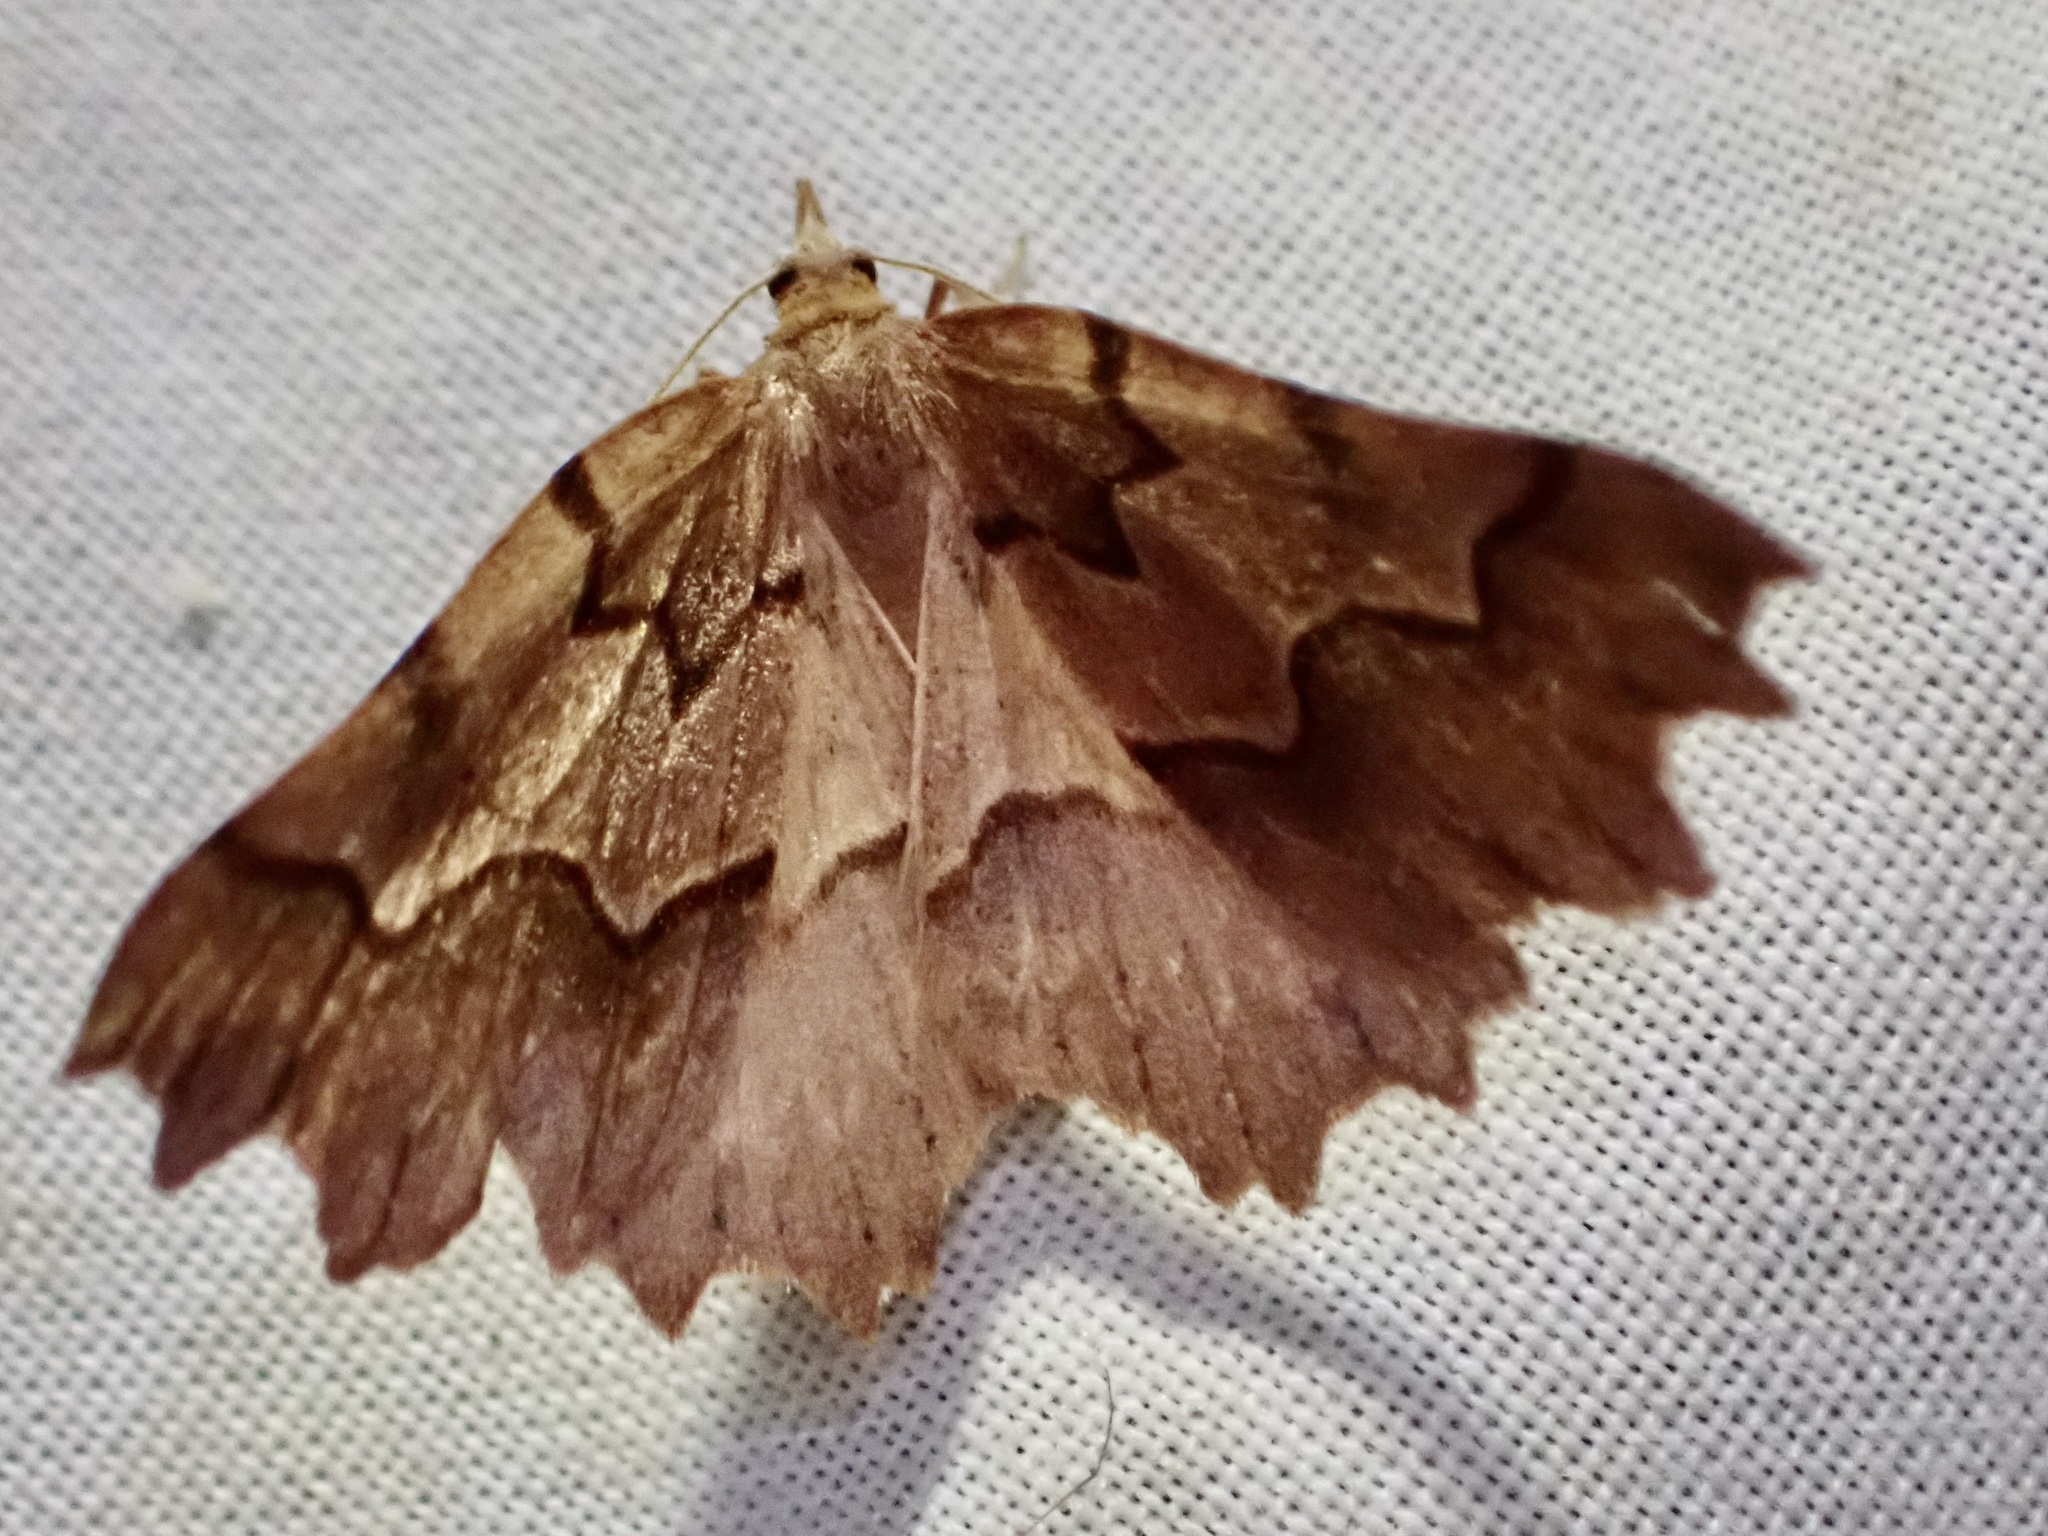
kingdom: Animalia
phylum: Arthropoda
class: Insecta
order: Lepidoptera
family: Geometridae
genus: Ischalis
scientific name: Ischalis fortinata
